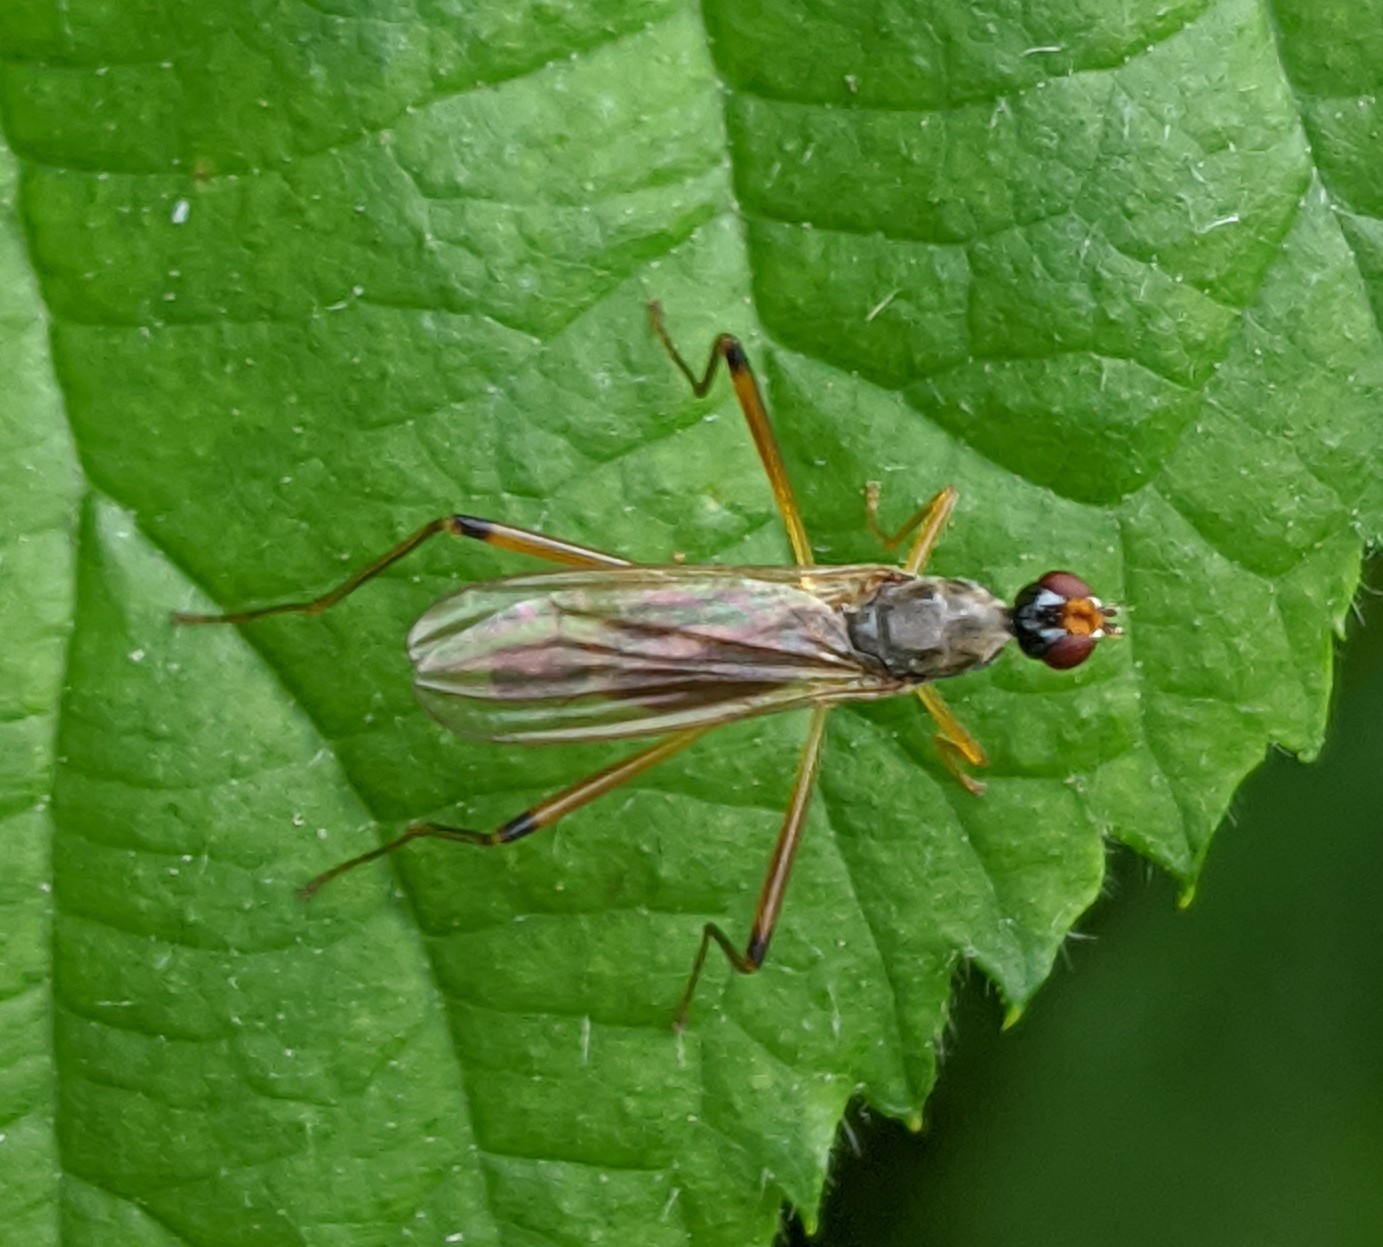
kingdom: Animalia
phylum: Arthropoda
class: Insecta
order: Diptera
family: Micropezidae
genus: Compsobata
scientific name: Compsobata cibaria
